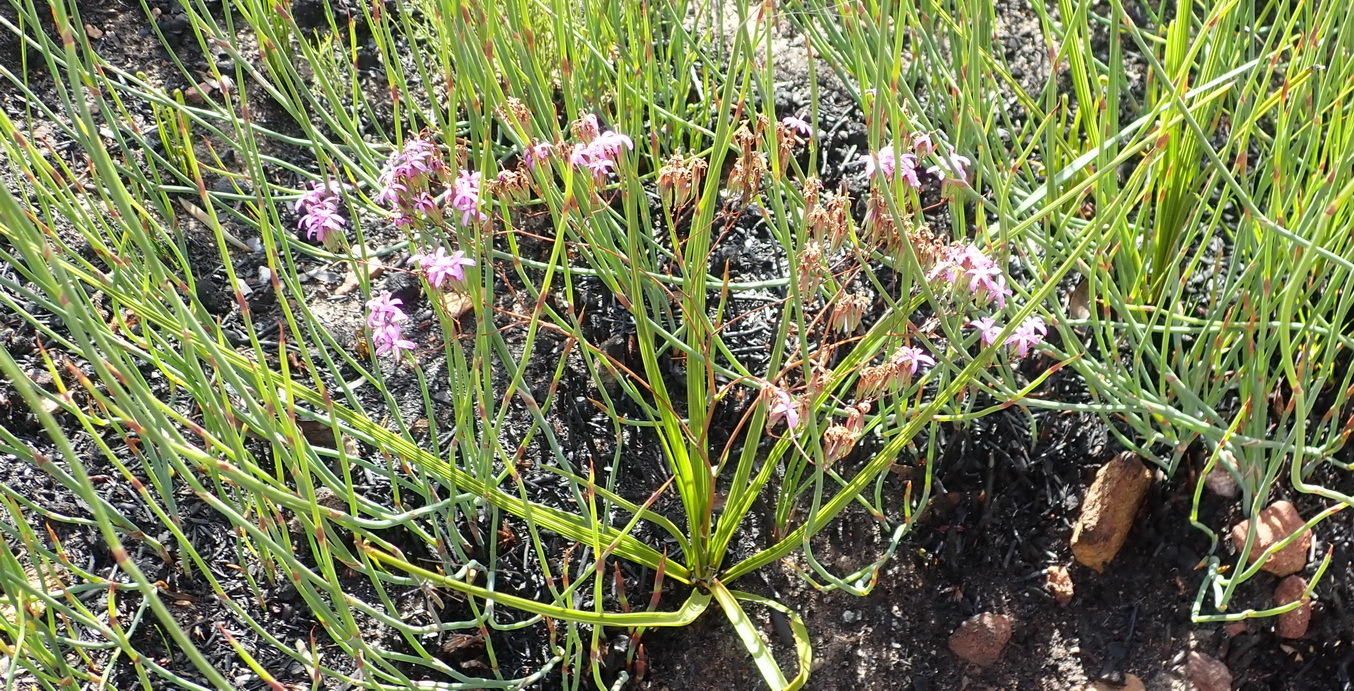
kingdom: Plantae
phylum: Tracheophyta
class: Magnoliopsida
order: Asterales
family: Asteraceae
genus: Corymbium
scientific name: Corymbium glabrum
